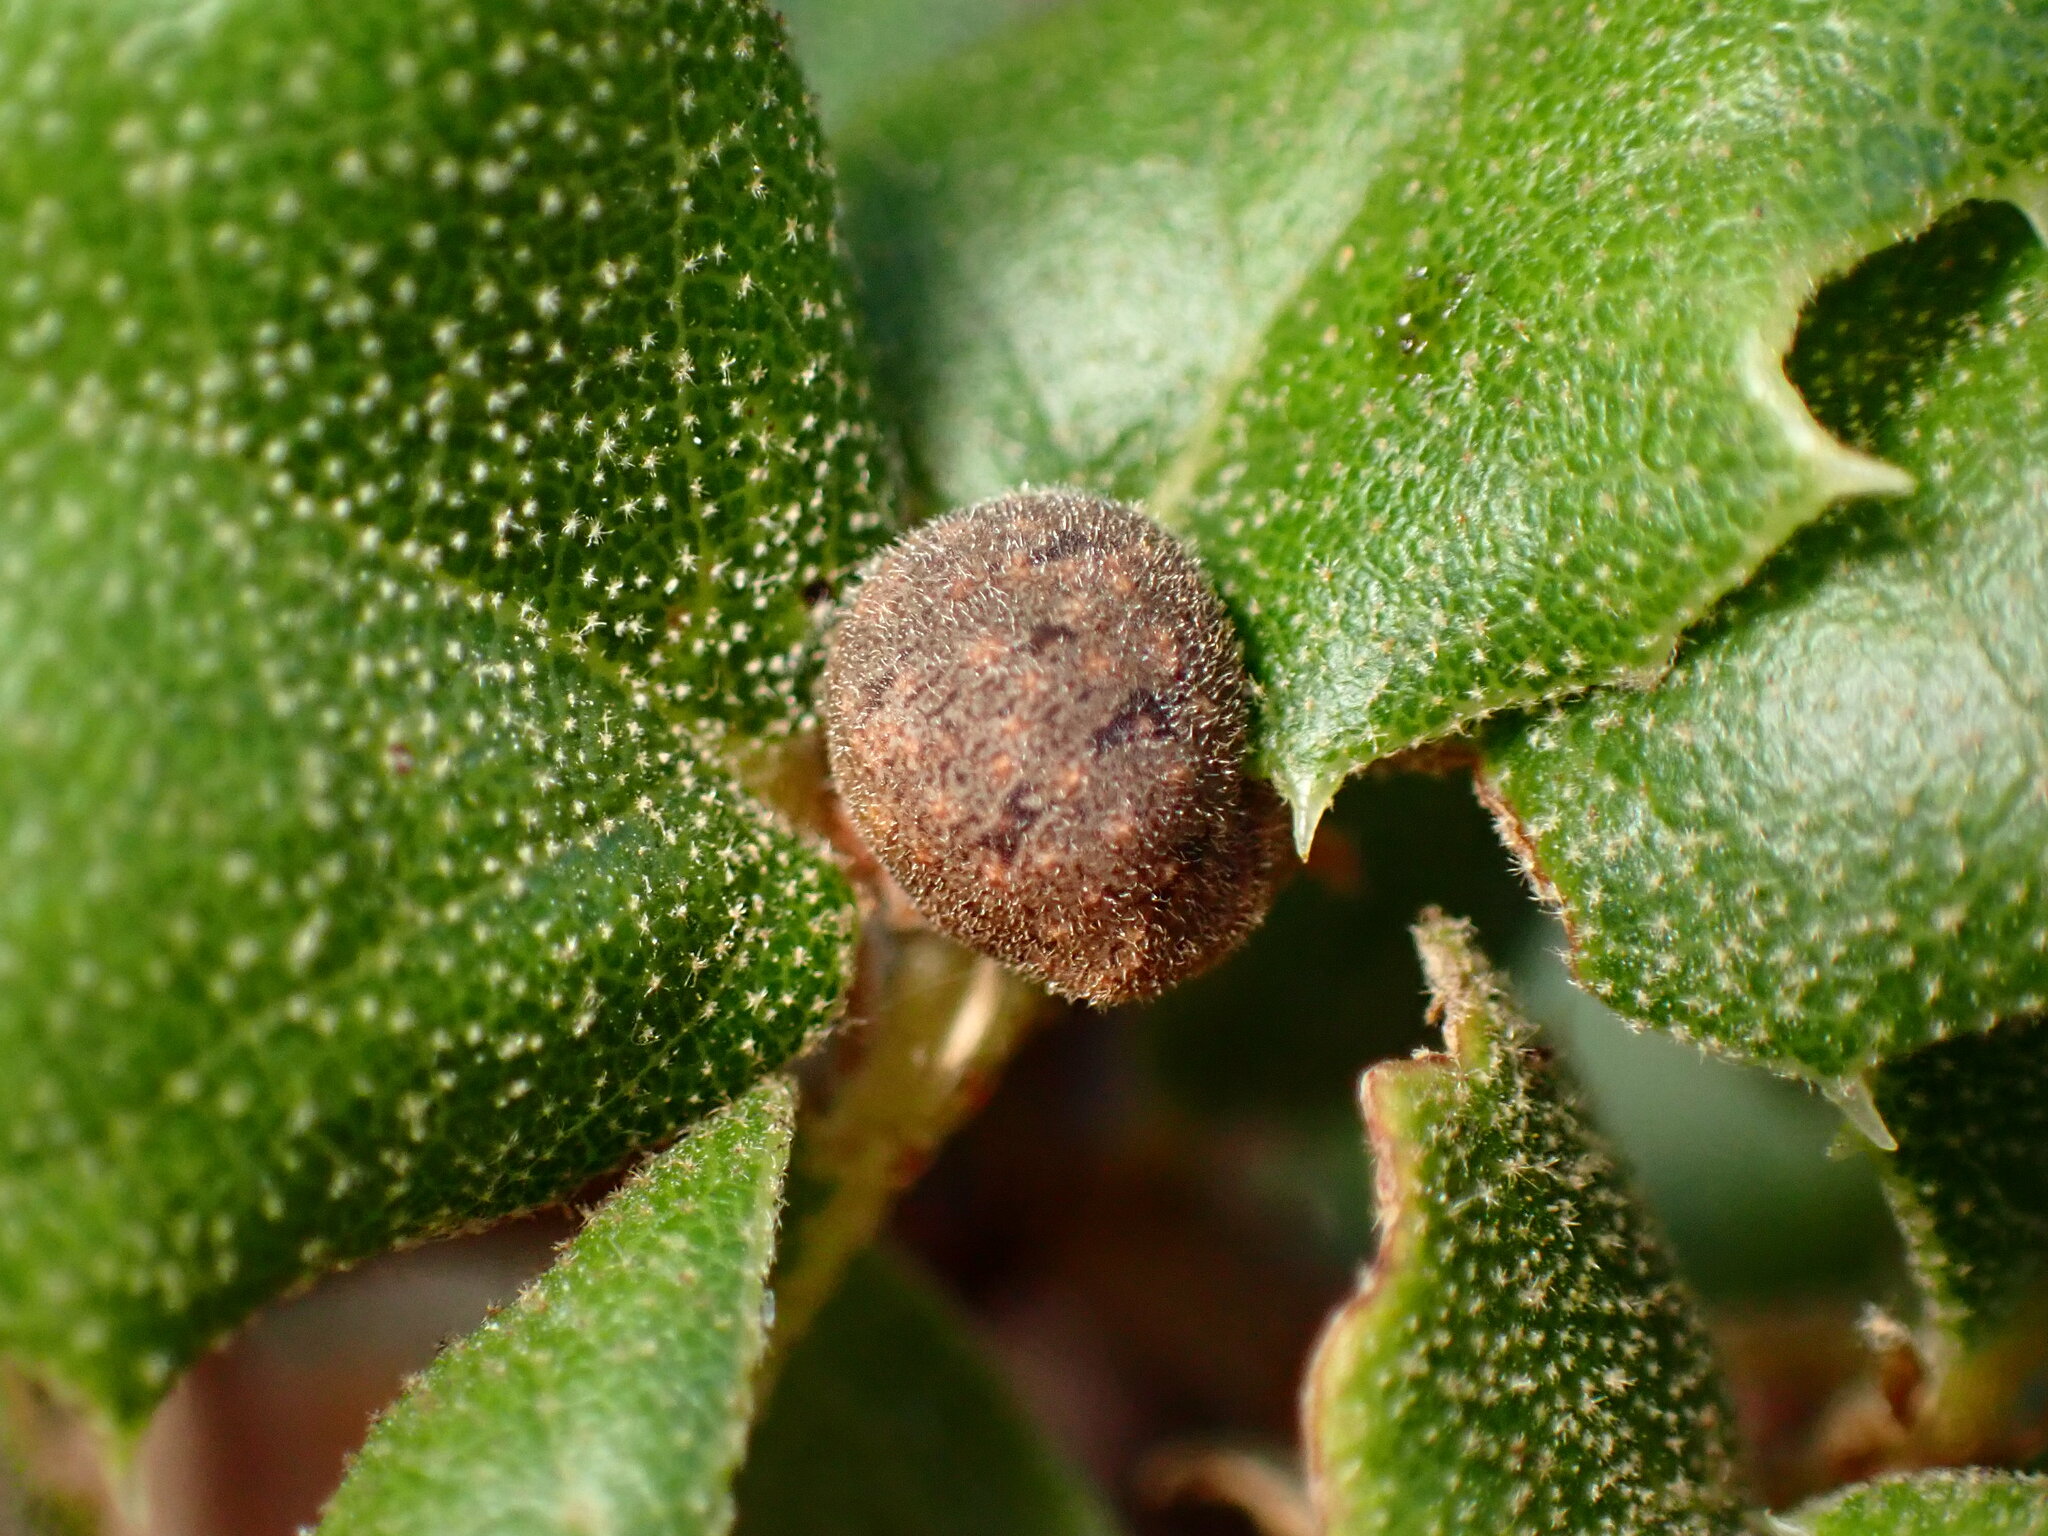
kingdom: Animalia
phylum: Arthropoda
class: Insecta
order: Hymenoptera
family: Cynipidae
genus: Callirhytis
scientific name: Callirhytis
